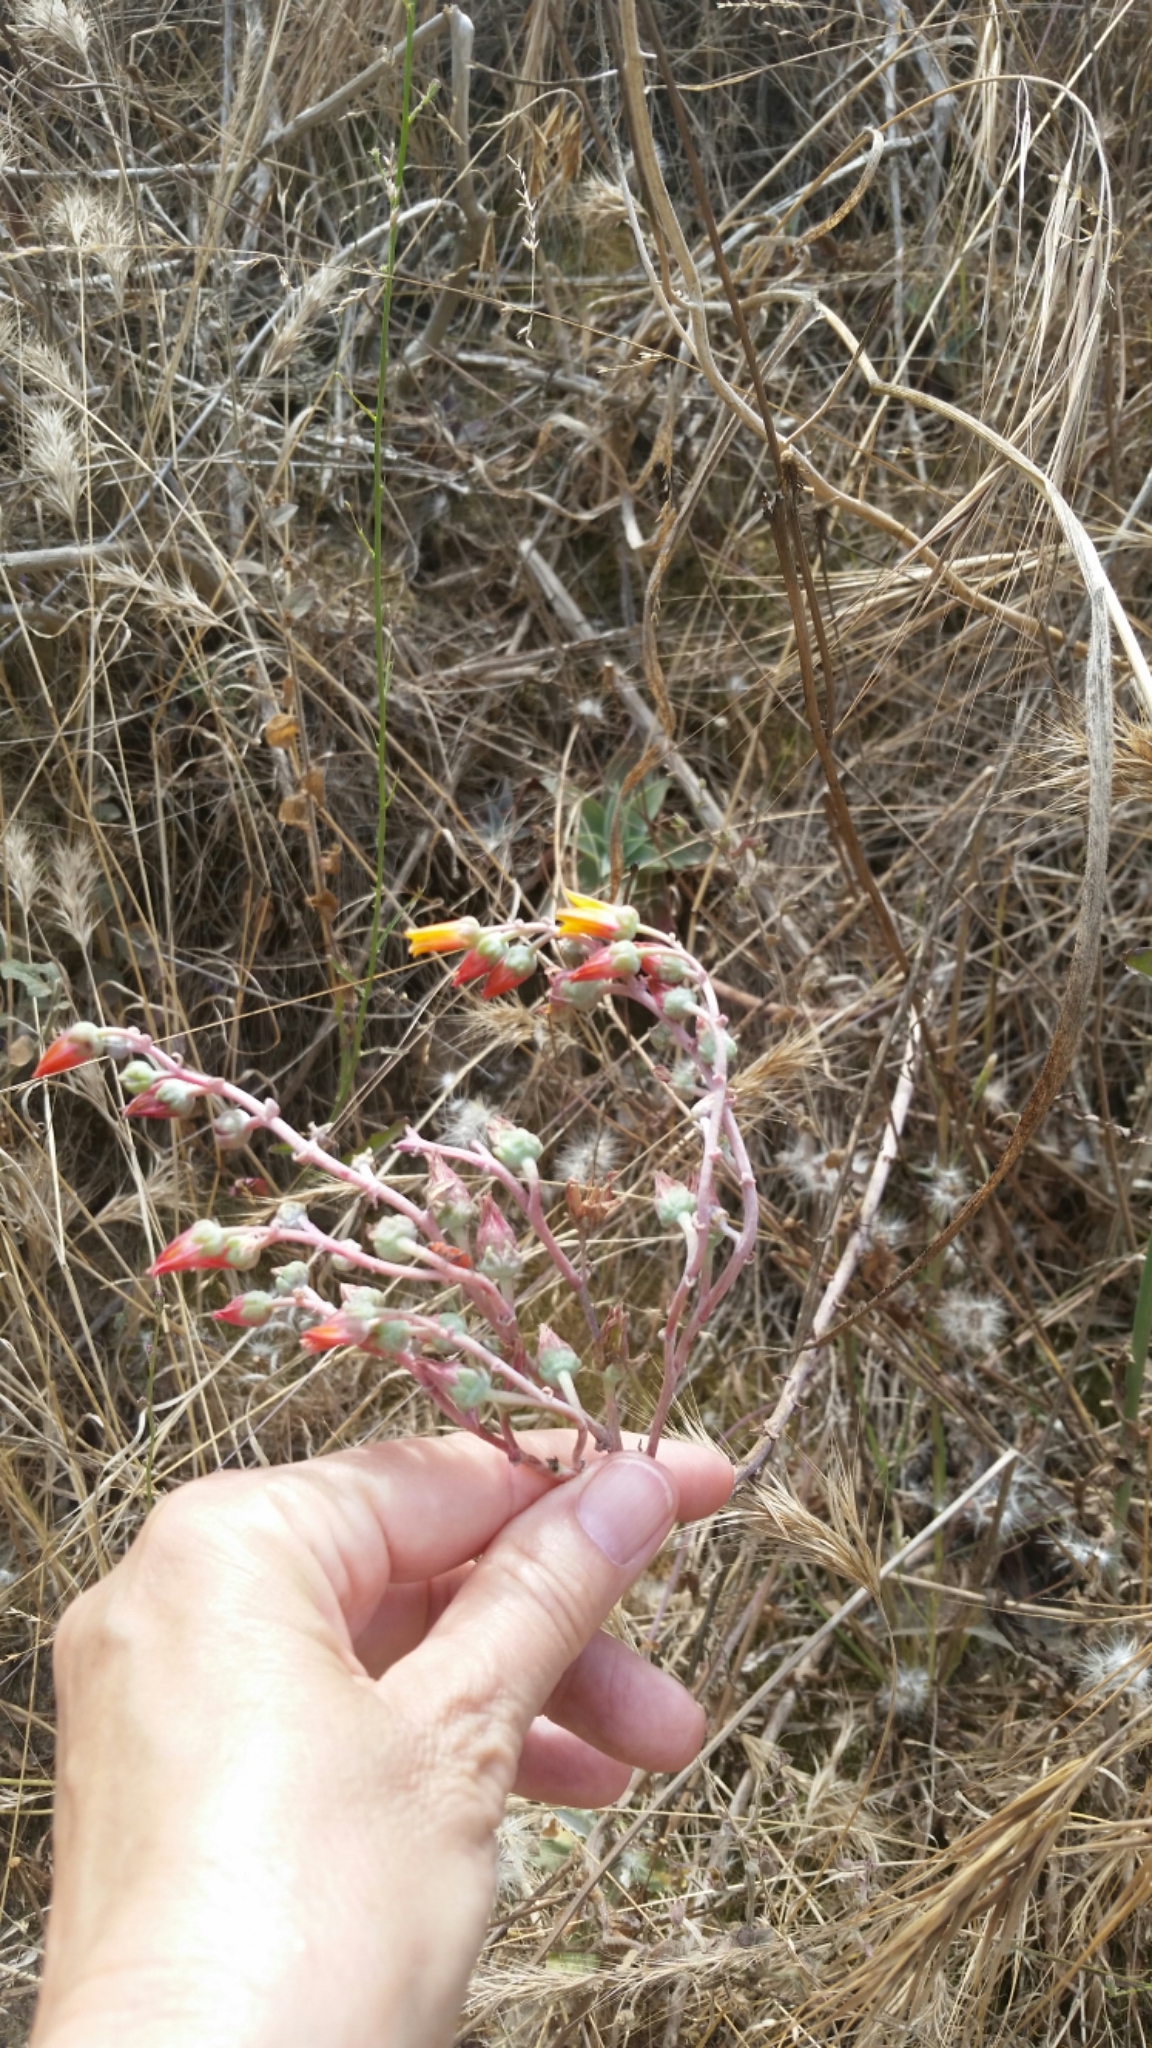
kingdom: Plantae
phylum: Tracheophyta
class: Magnoliopsida
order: Saxifragales
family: Crassulaceae
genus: Dudleya
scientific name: Dudleya lanceolata
